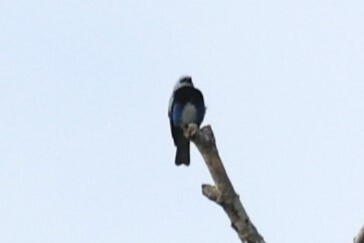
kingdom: Animalia
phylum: Chordata
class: Aves
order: Passeriformes
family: Thraupidae
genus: Stilpnia
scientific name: Stilpnia nigrocincta
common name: Masked tanager
